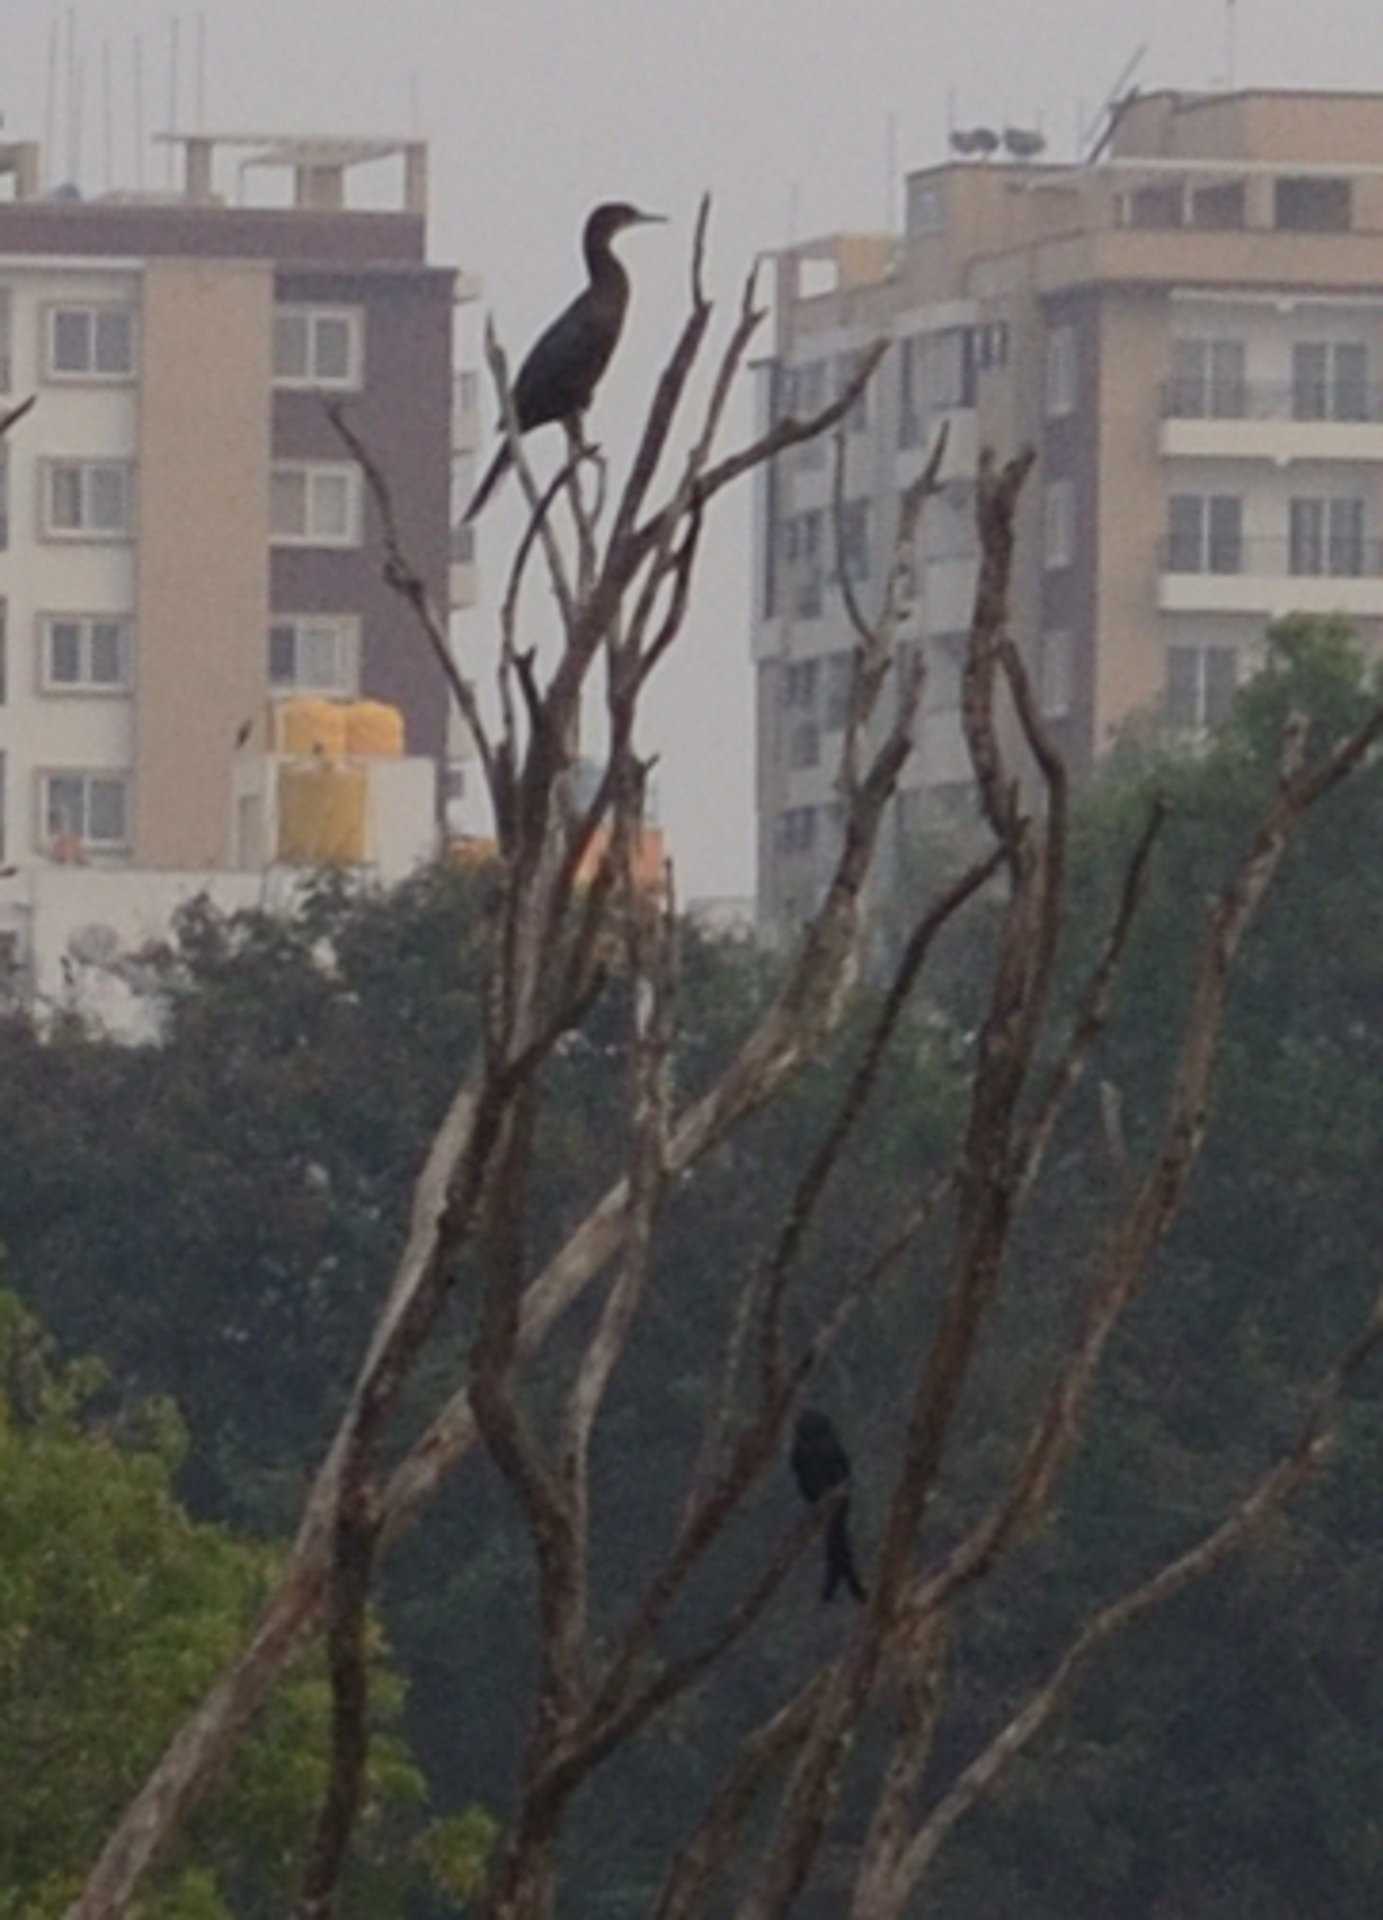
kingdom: Animalia
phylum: Chordata
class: Aves
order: Suliformes
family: Phalacrocoracidae
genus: Phalacrocorax
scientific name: Phalacrocorax fuscicollis
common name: Indian cormorant
